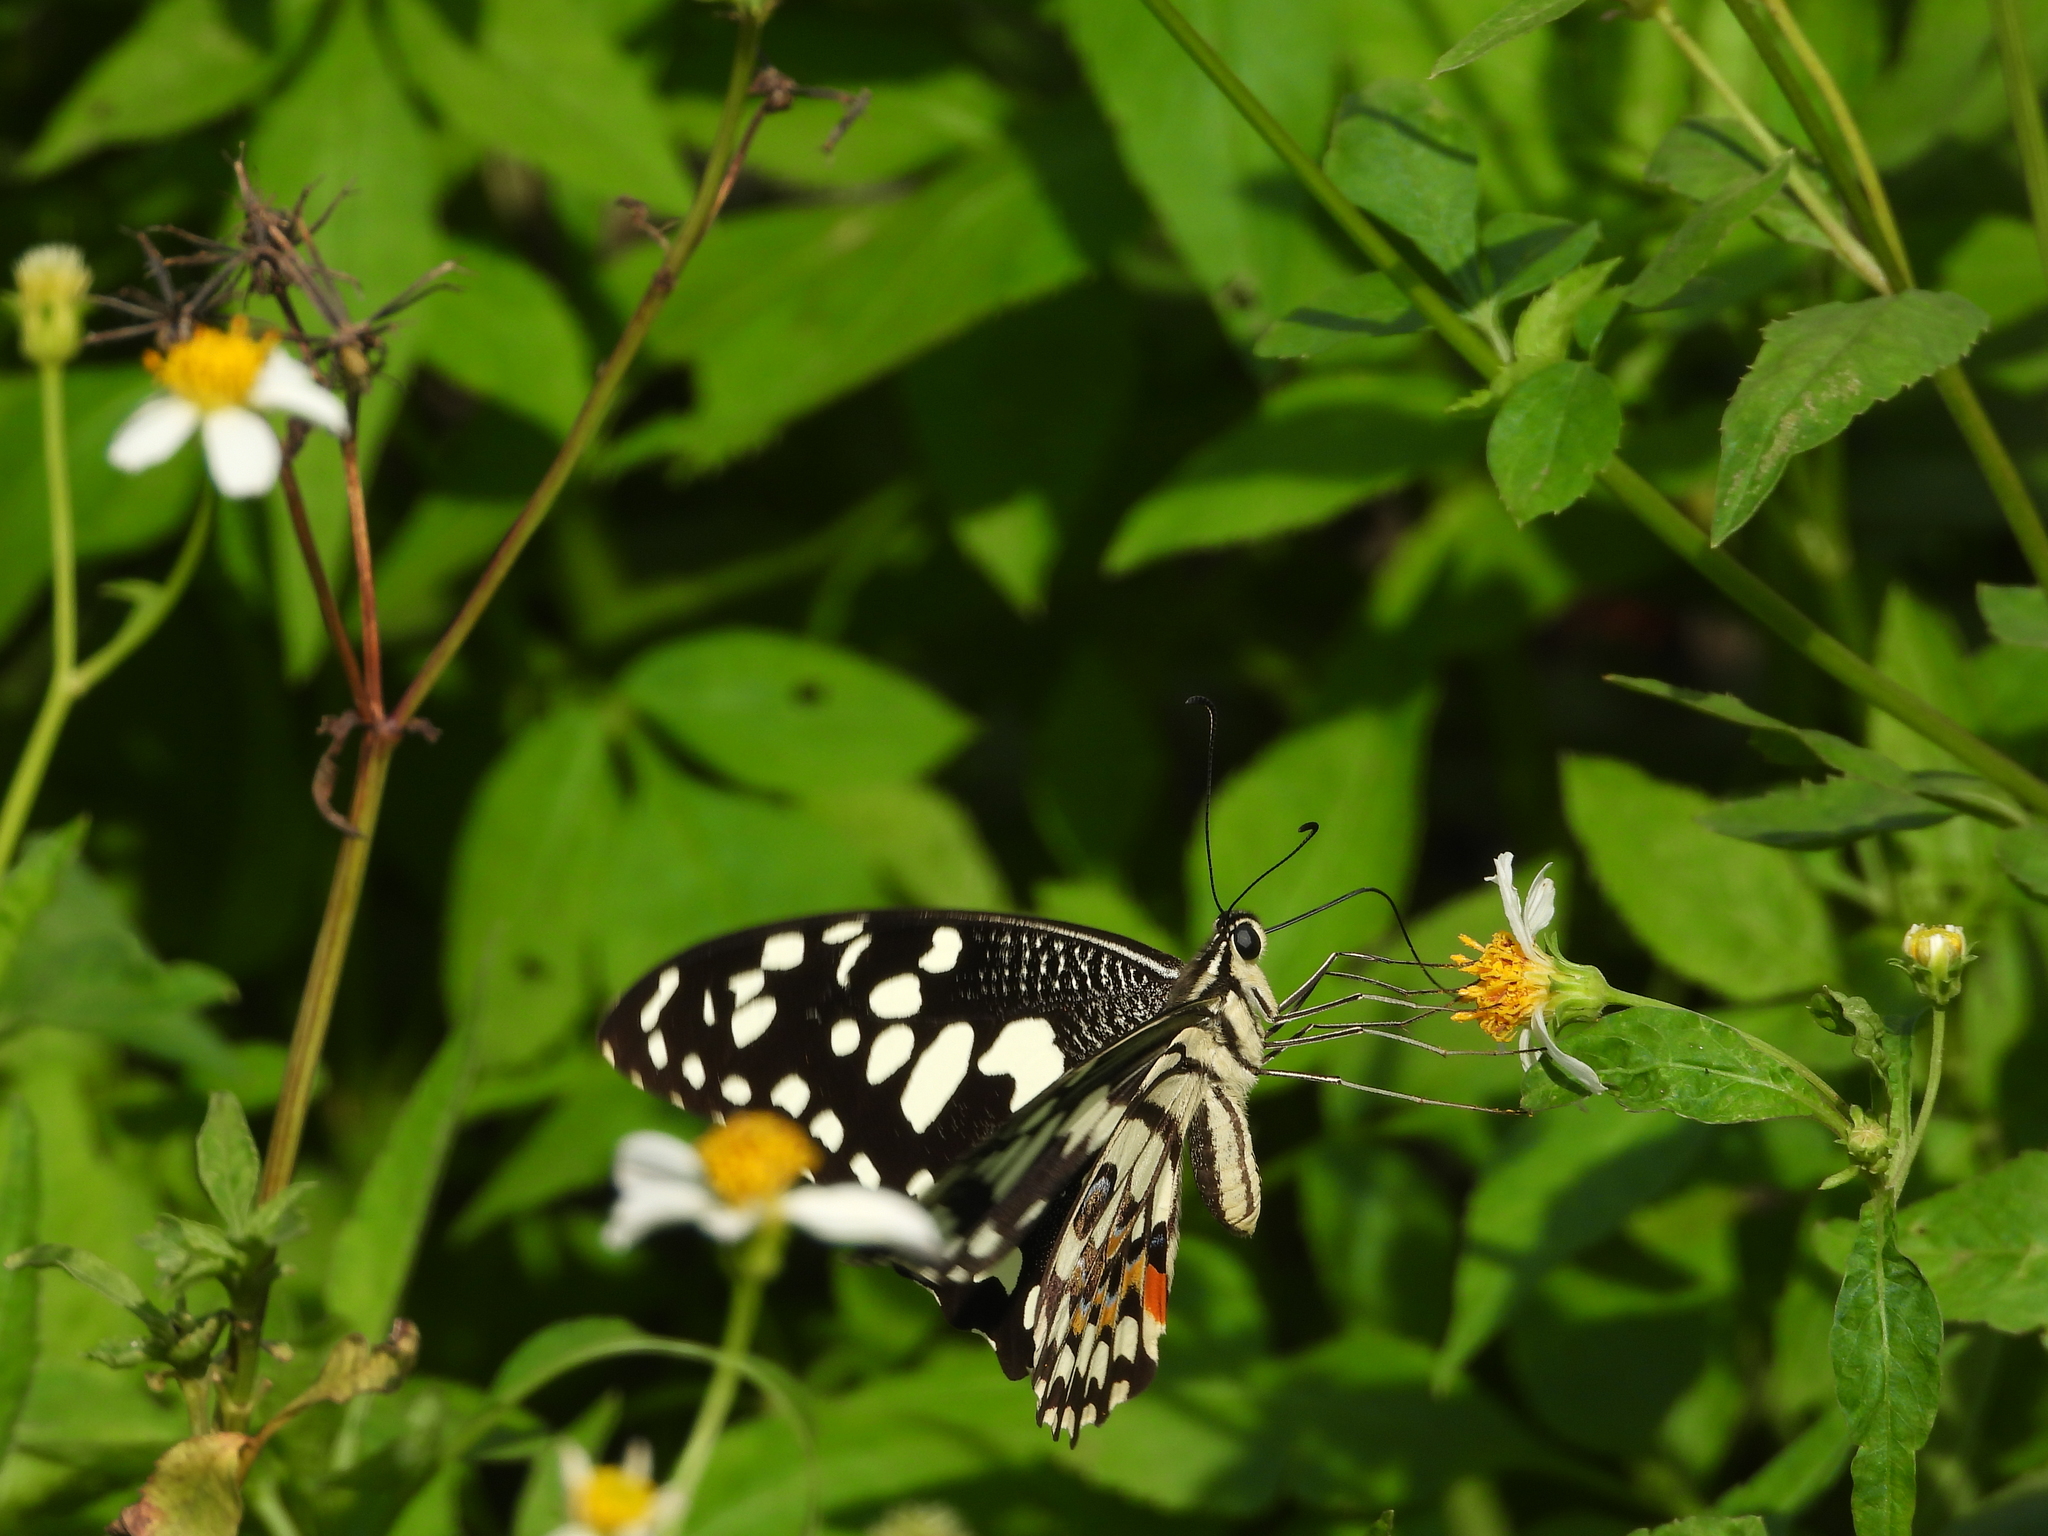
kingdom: Animalia
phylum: Arthropoda
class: Insecta
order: Lepidoptera
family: Papilionidae
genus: Papilio
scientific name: Papilio demoleus
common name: Lime butterfly
